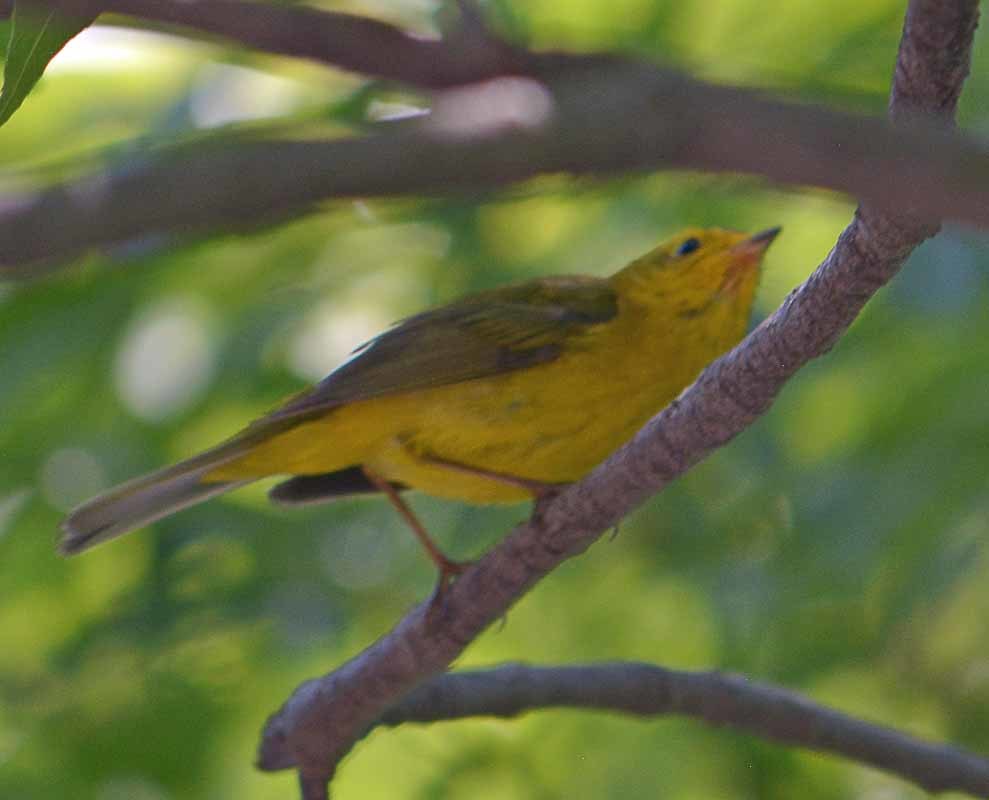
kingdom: Animalia
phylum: Chordata
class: Aves
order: Passeriformes
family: Parulidae
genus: Cardellina
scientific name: Cardellina pusilla
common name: Wilson's warbler
